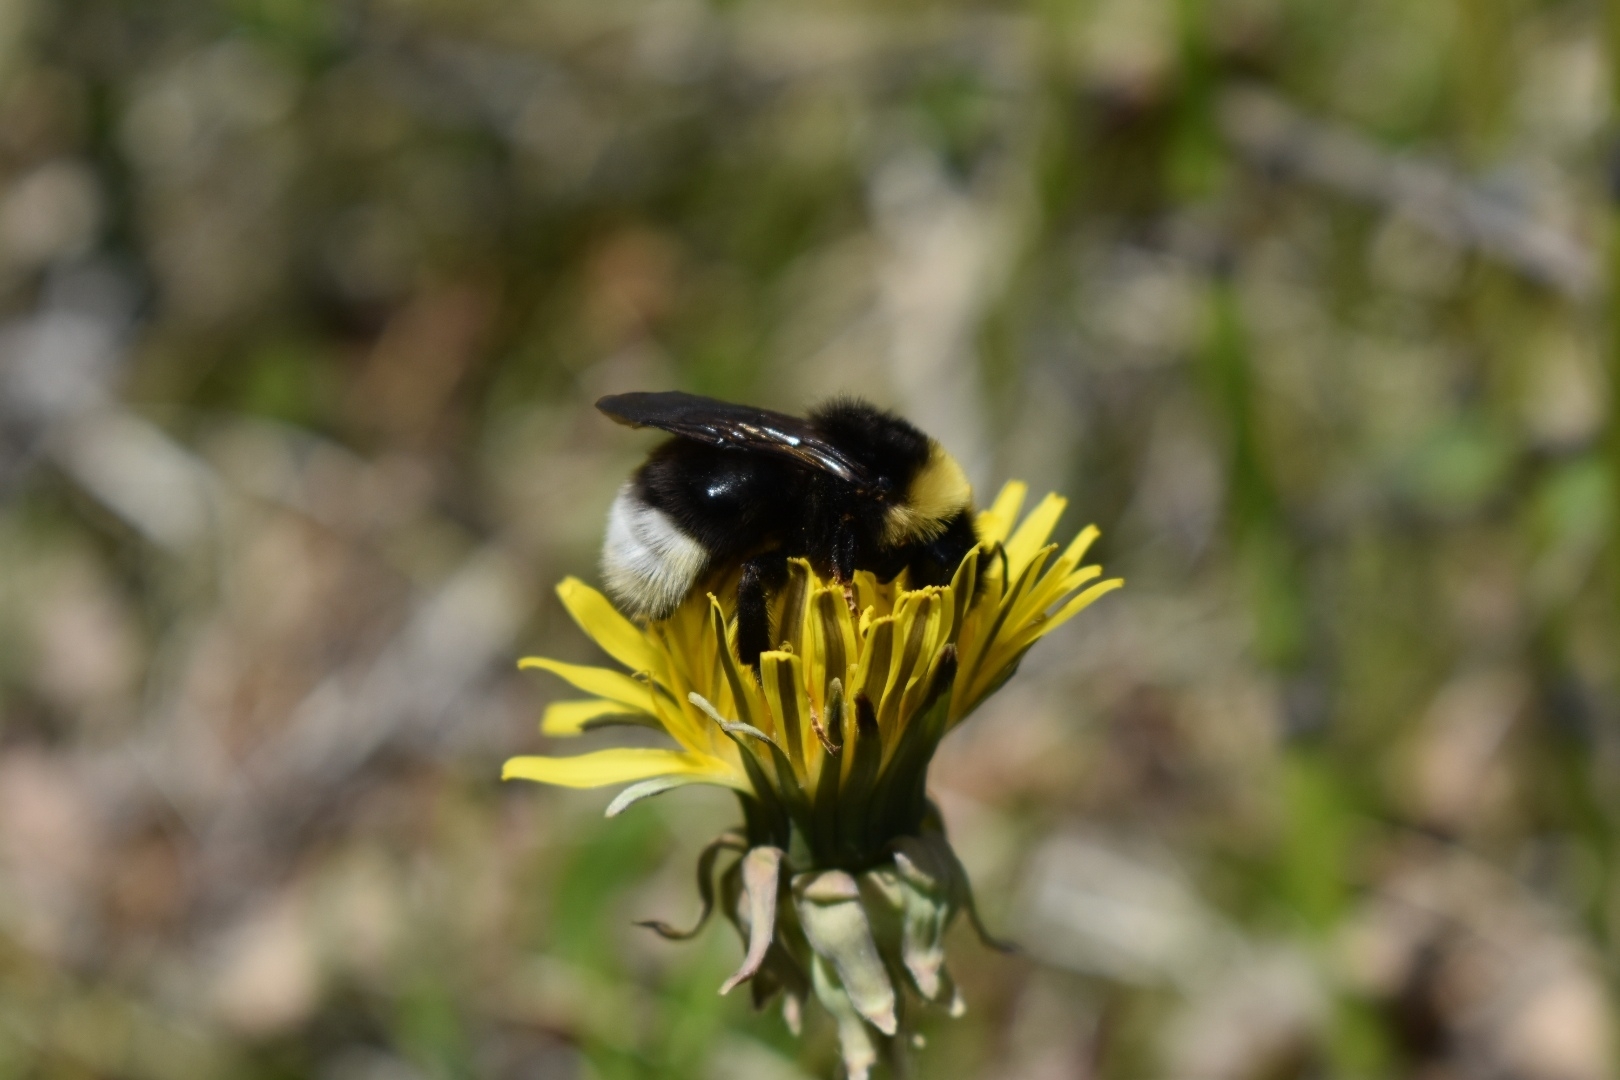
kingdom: Animalia
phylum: Arthropoda
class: Insecta
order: Hymenoptera
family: Apidae
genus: Bombus
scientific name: Bombus bohemicus
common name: Gypsy cuckoo bee
